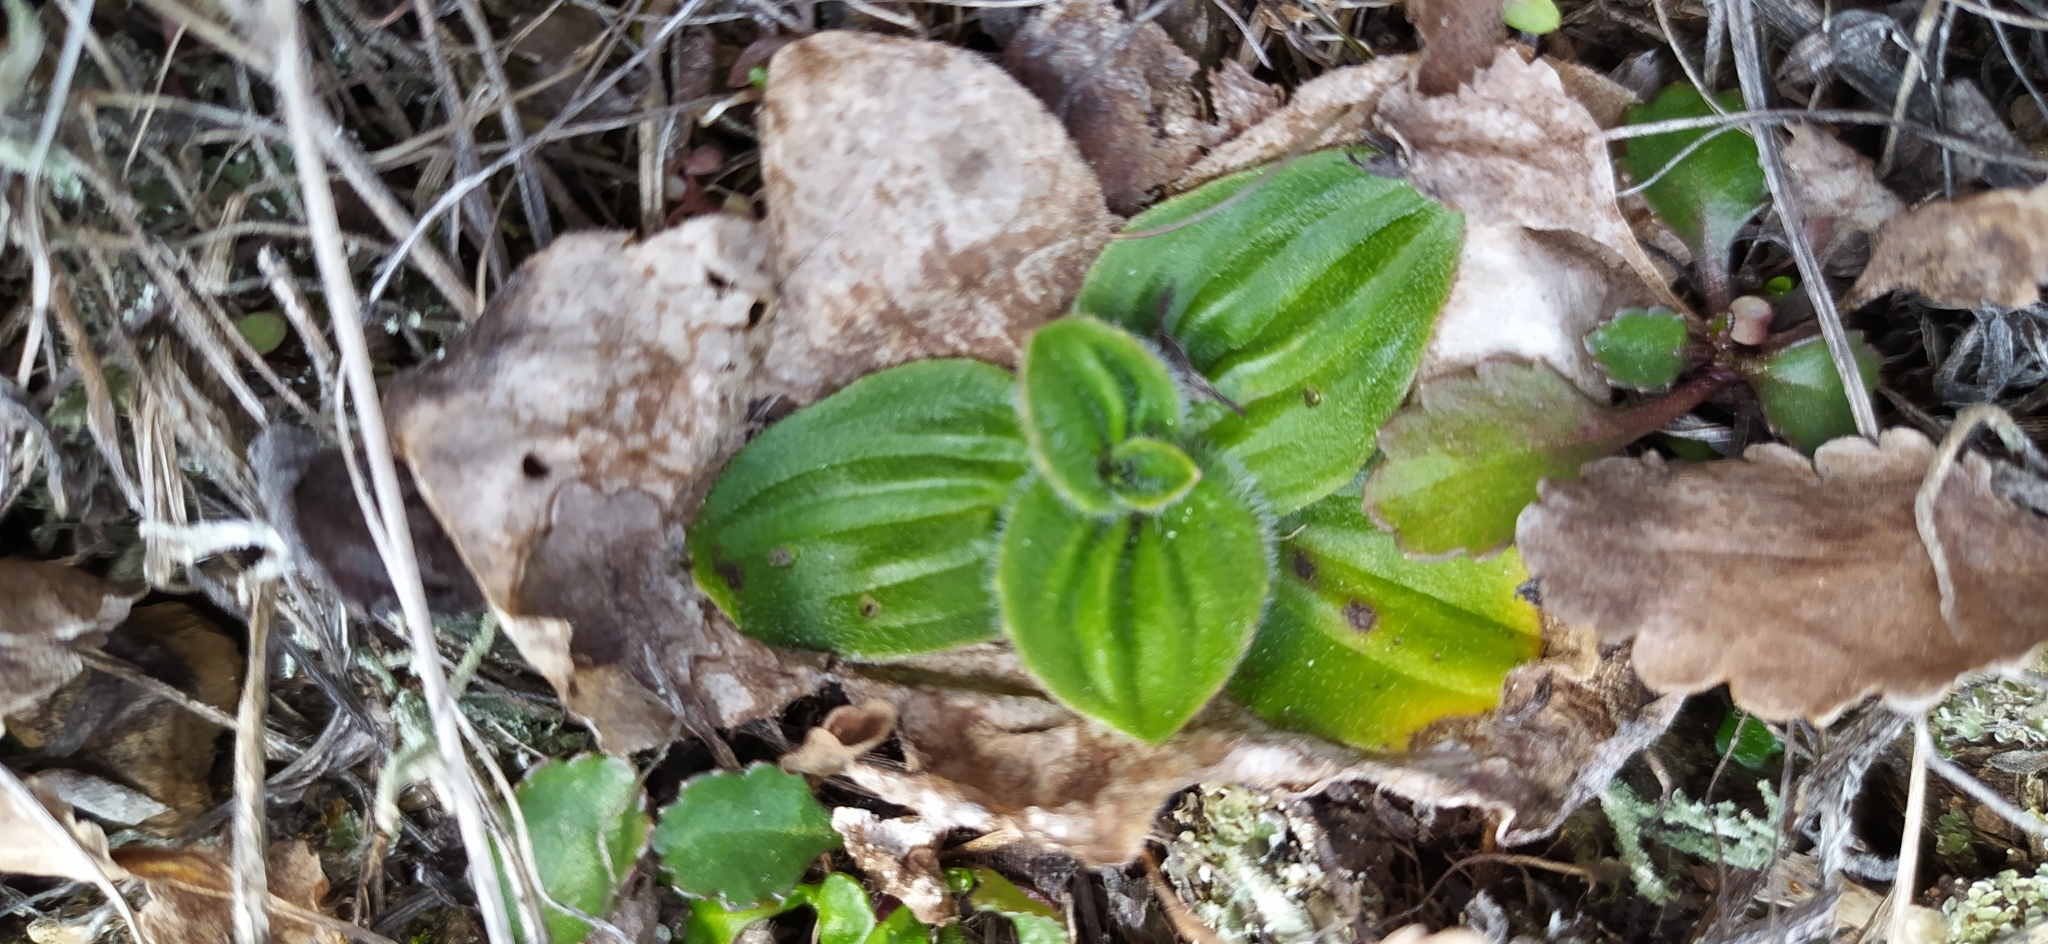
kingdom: Plantae
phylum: Tracheophyta
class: Magnoliopsida
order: Lamiales
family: Plantaginaceae
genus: Plantago
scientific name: Plantago media
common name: Hoary plantain
